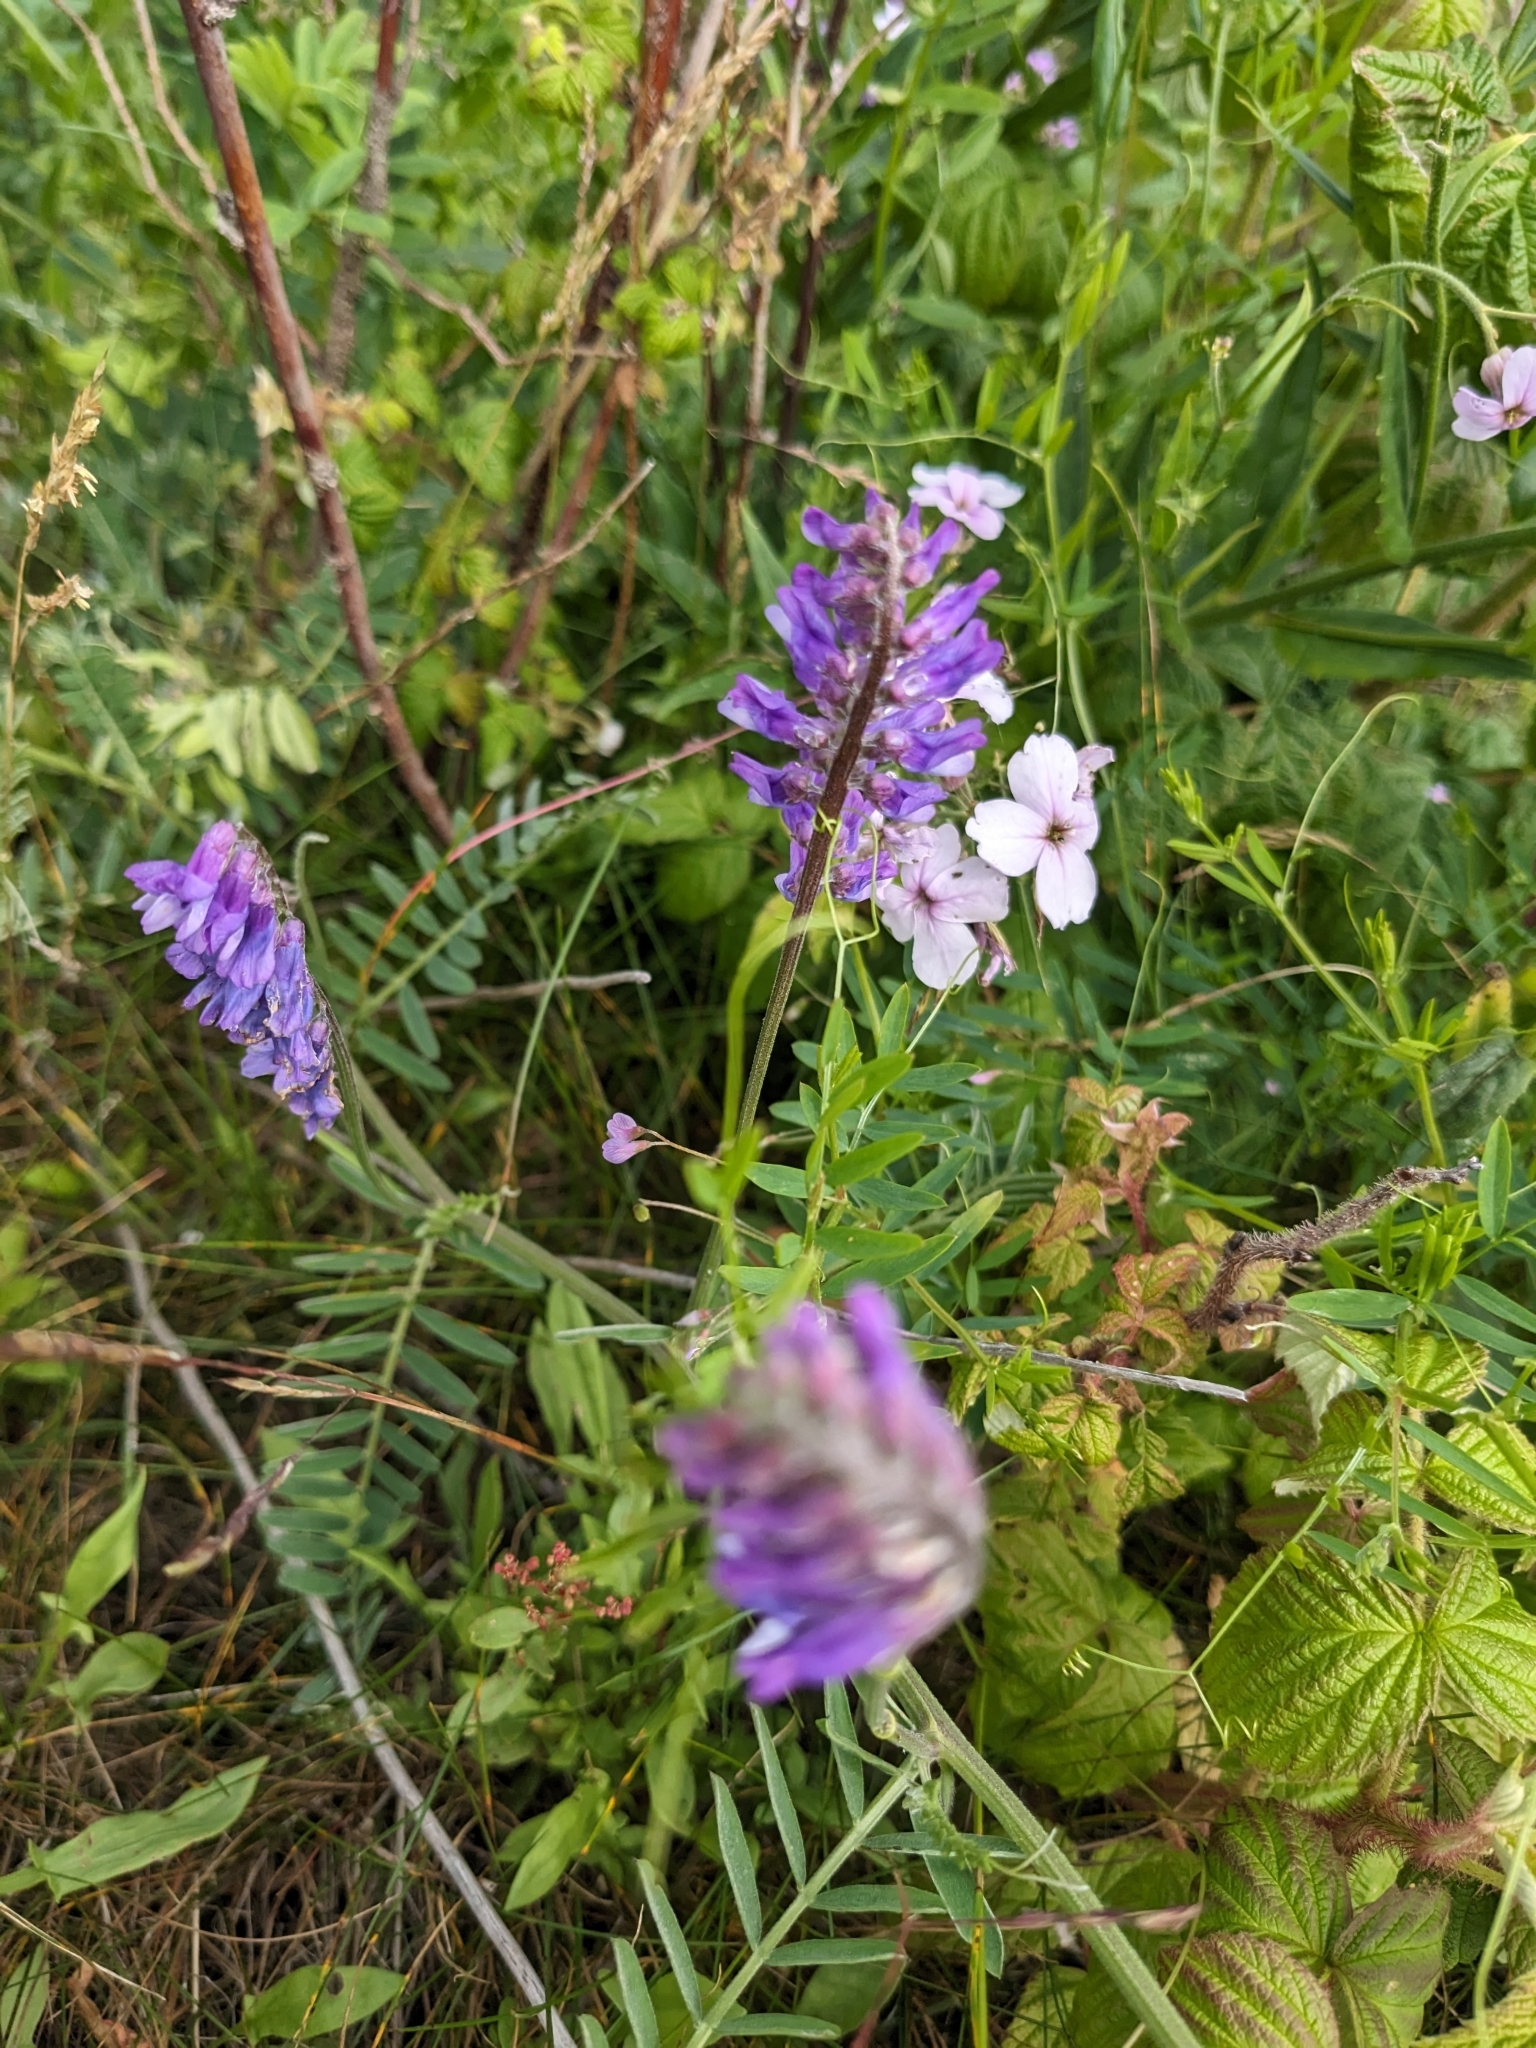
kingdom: Plantae
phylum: Tracheophyta
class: Magnoliopsida
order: Fabales
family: Fabaceae
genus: Vicia
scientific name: Vicia cracca
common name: Bird vetch
